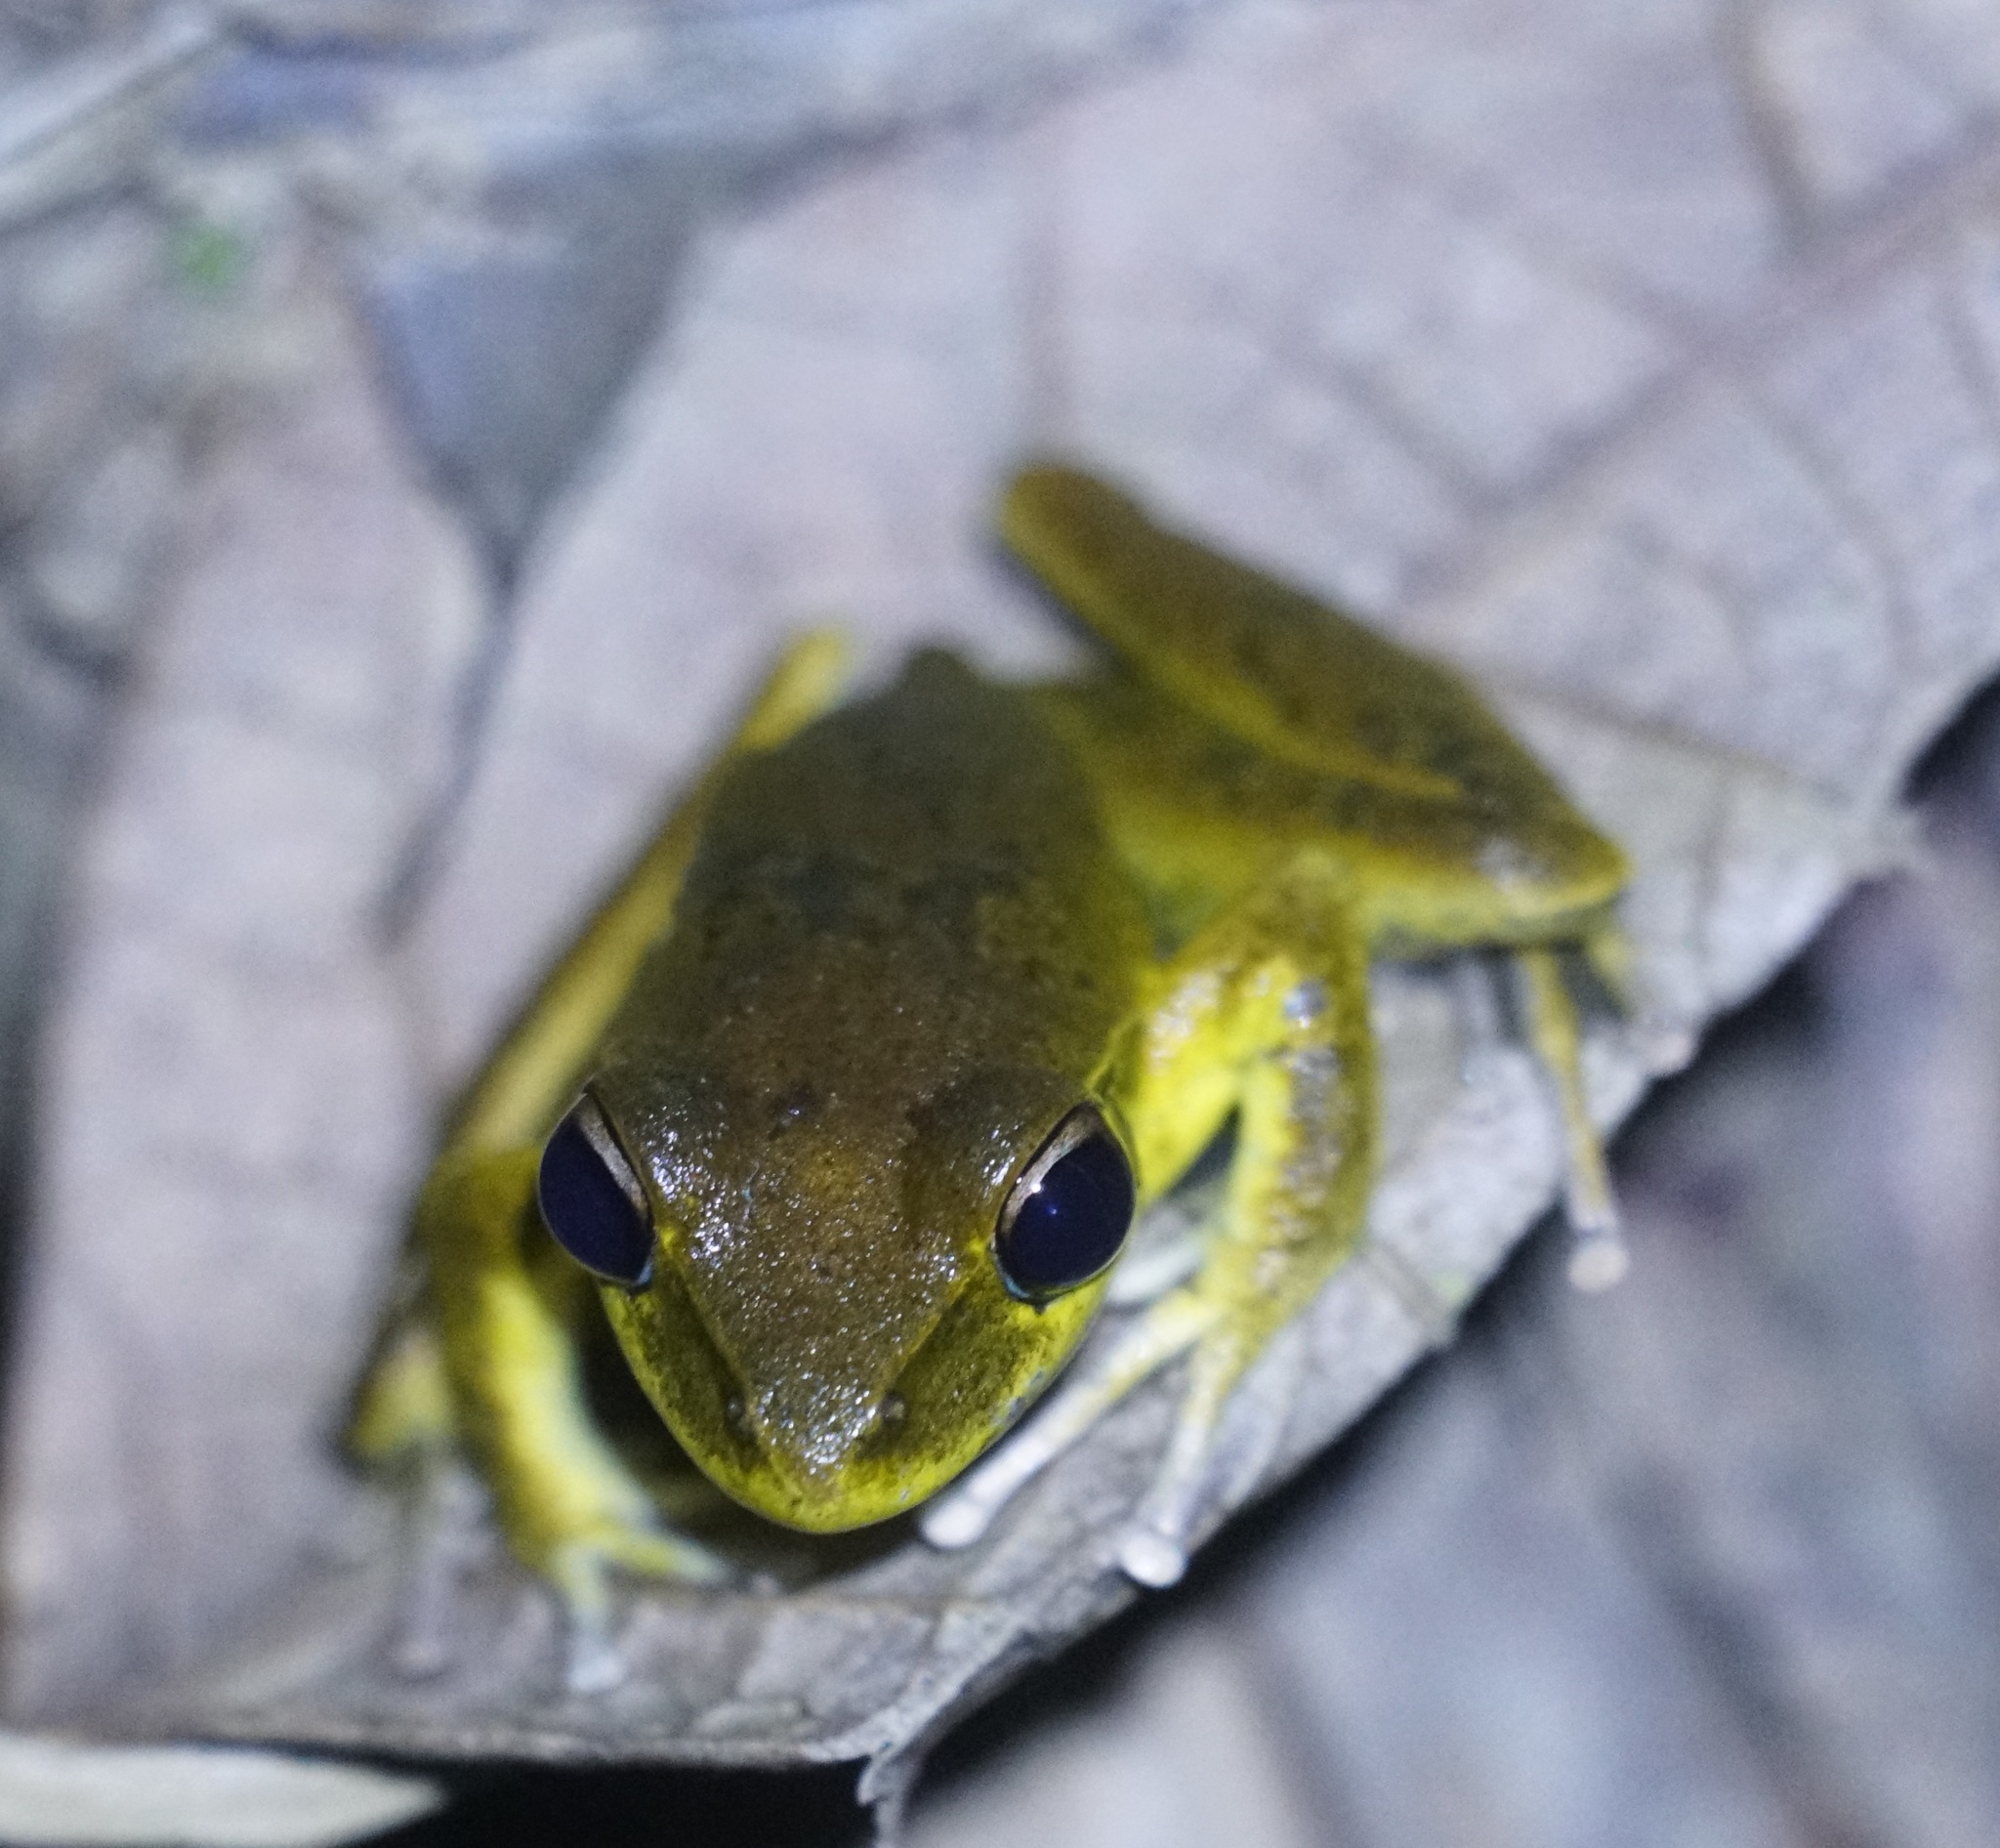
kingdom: Animalia
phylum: Chordata
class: Amphibia
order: Anura
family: Hylidae
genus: Ranoidea
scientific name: Ranoidea
